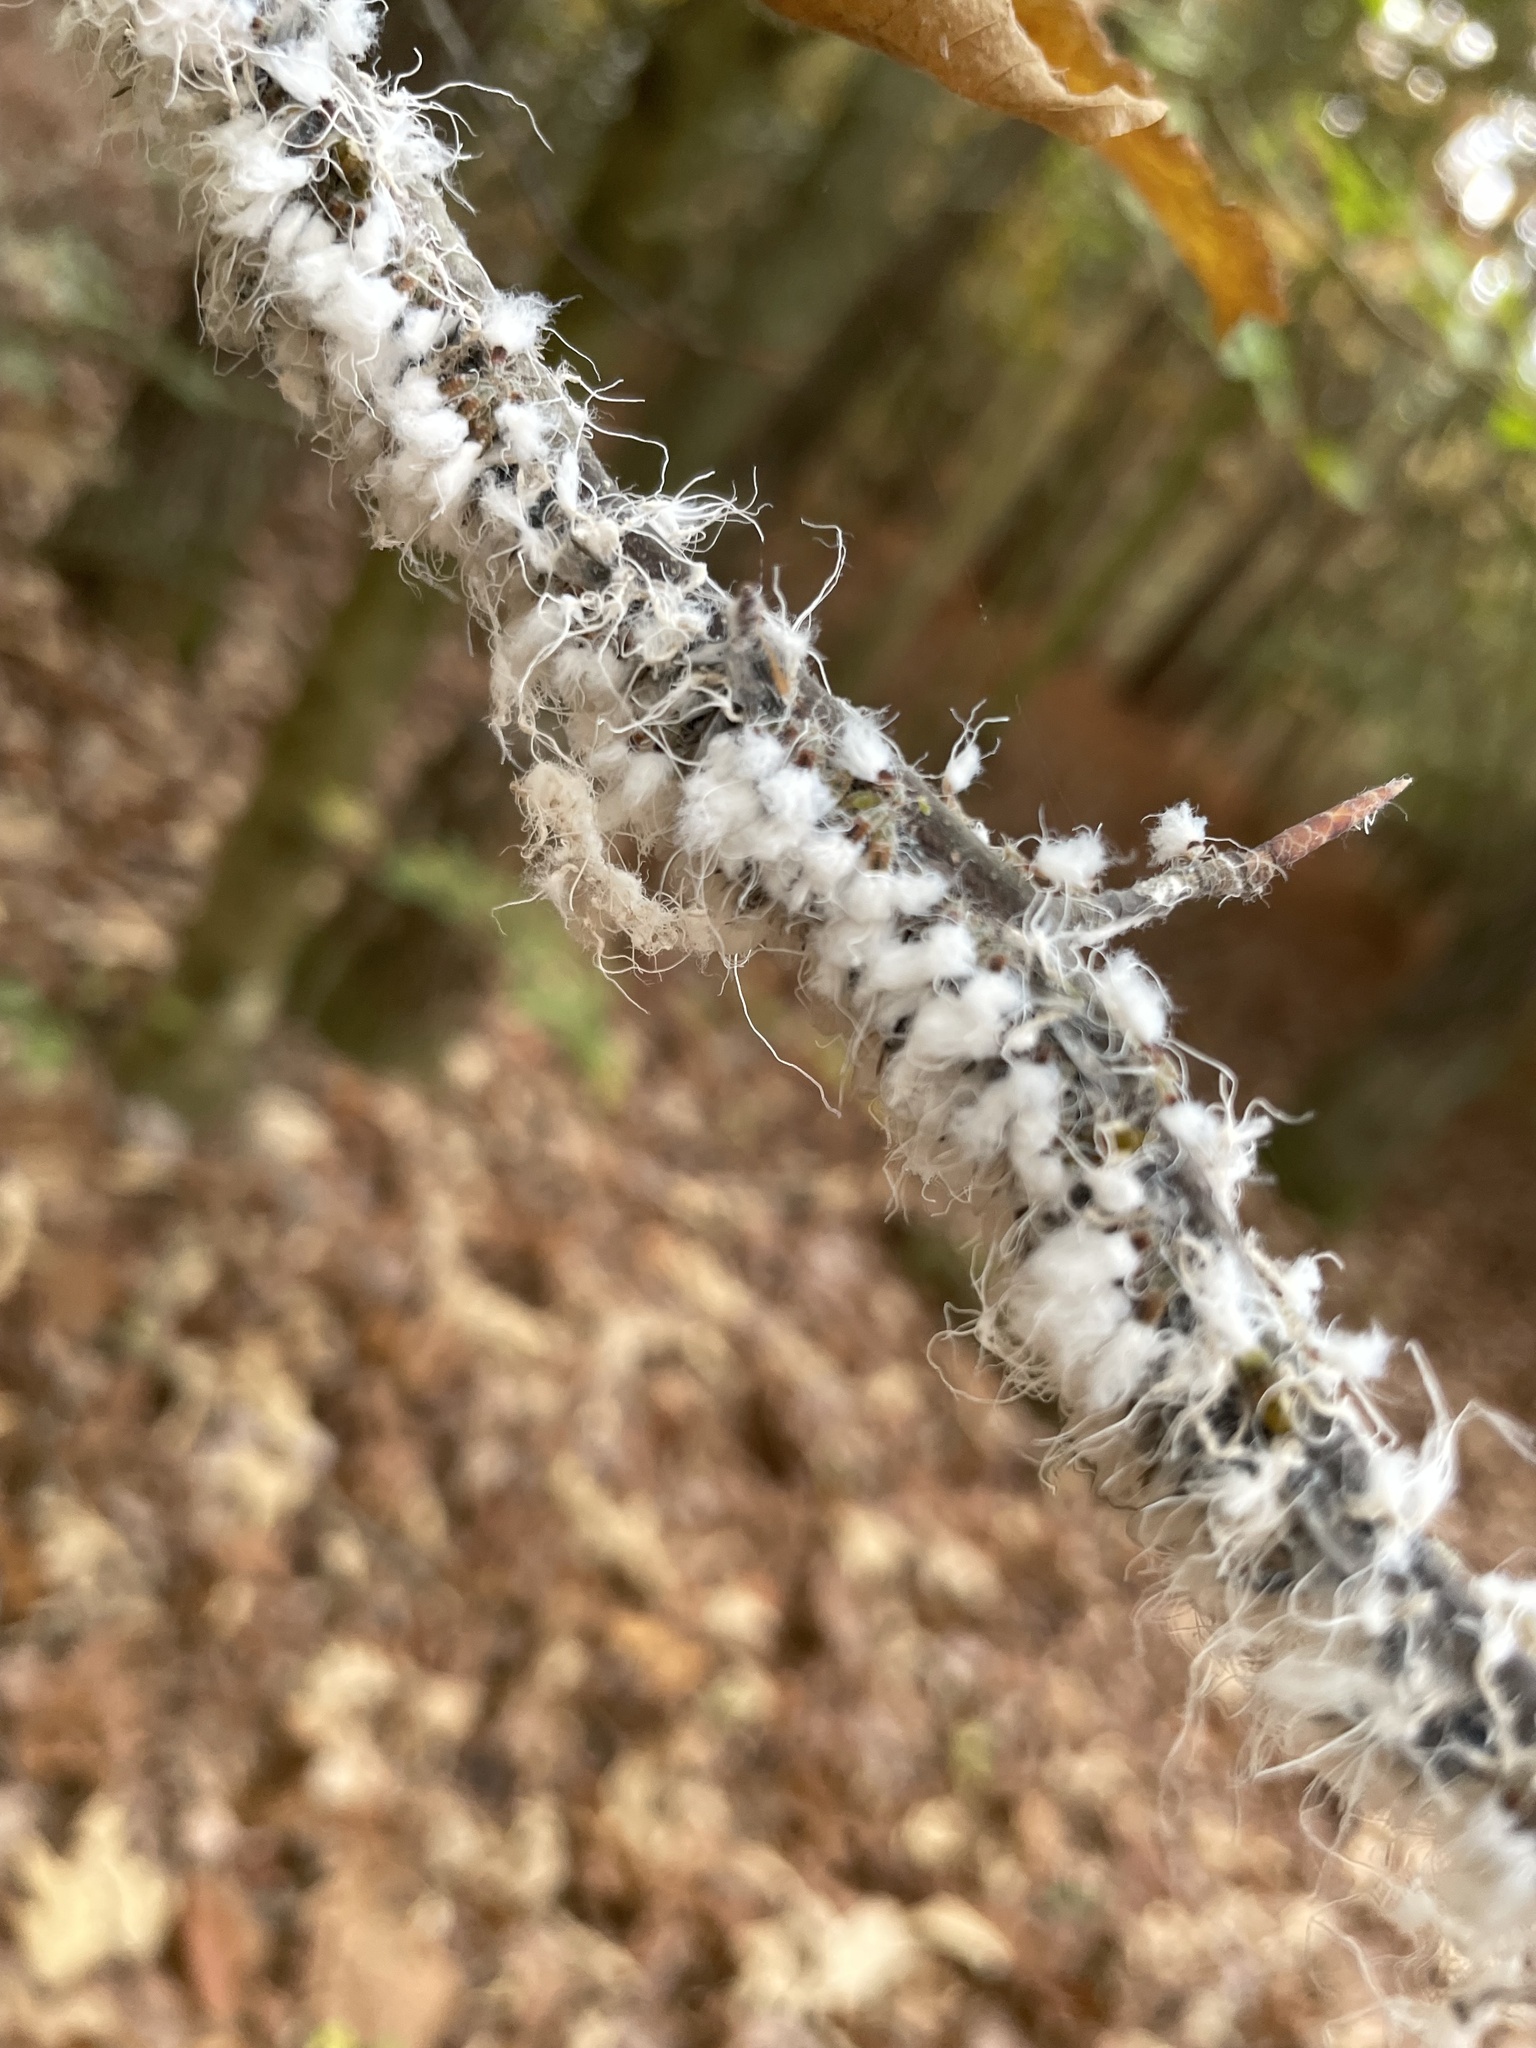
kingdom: Animalia
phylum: Arthropoda
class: Insecta
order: Hemiptera
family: Aphididae
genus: Grylloprociphilus
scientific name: Grylloprociphilus imbricator
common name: Beech blight aphid
